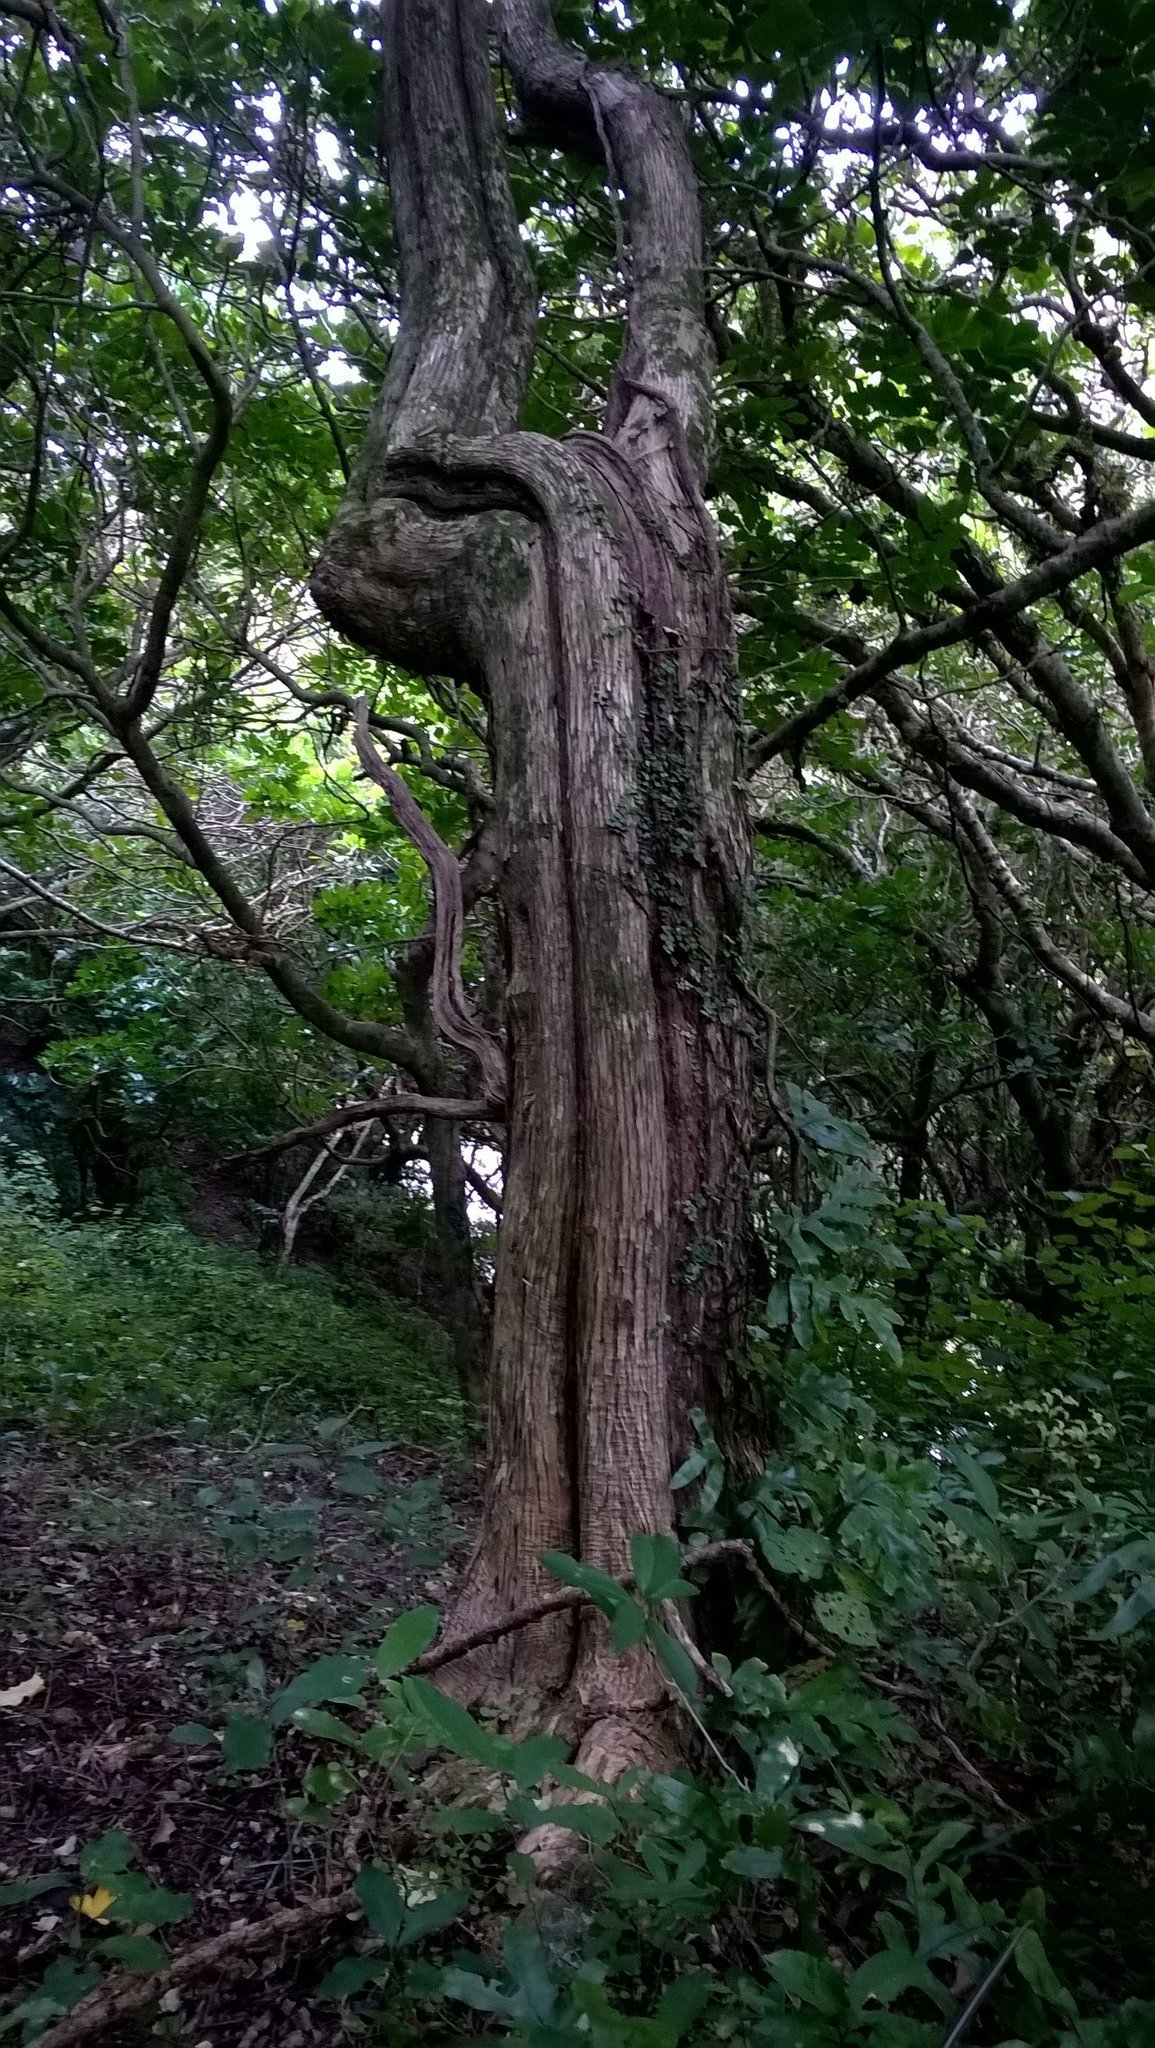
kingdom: Plantae
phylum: Tracheophyta
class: Magnoliopsida
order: Asterales
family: Asteraceae
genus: Olearia
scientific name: Olearia paniculata
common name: Akiraho
